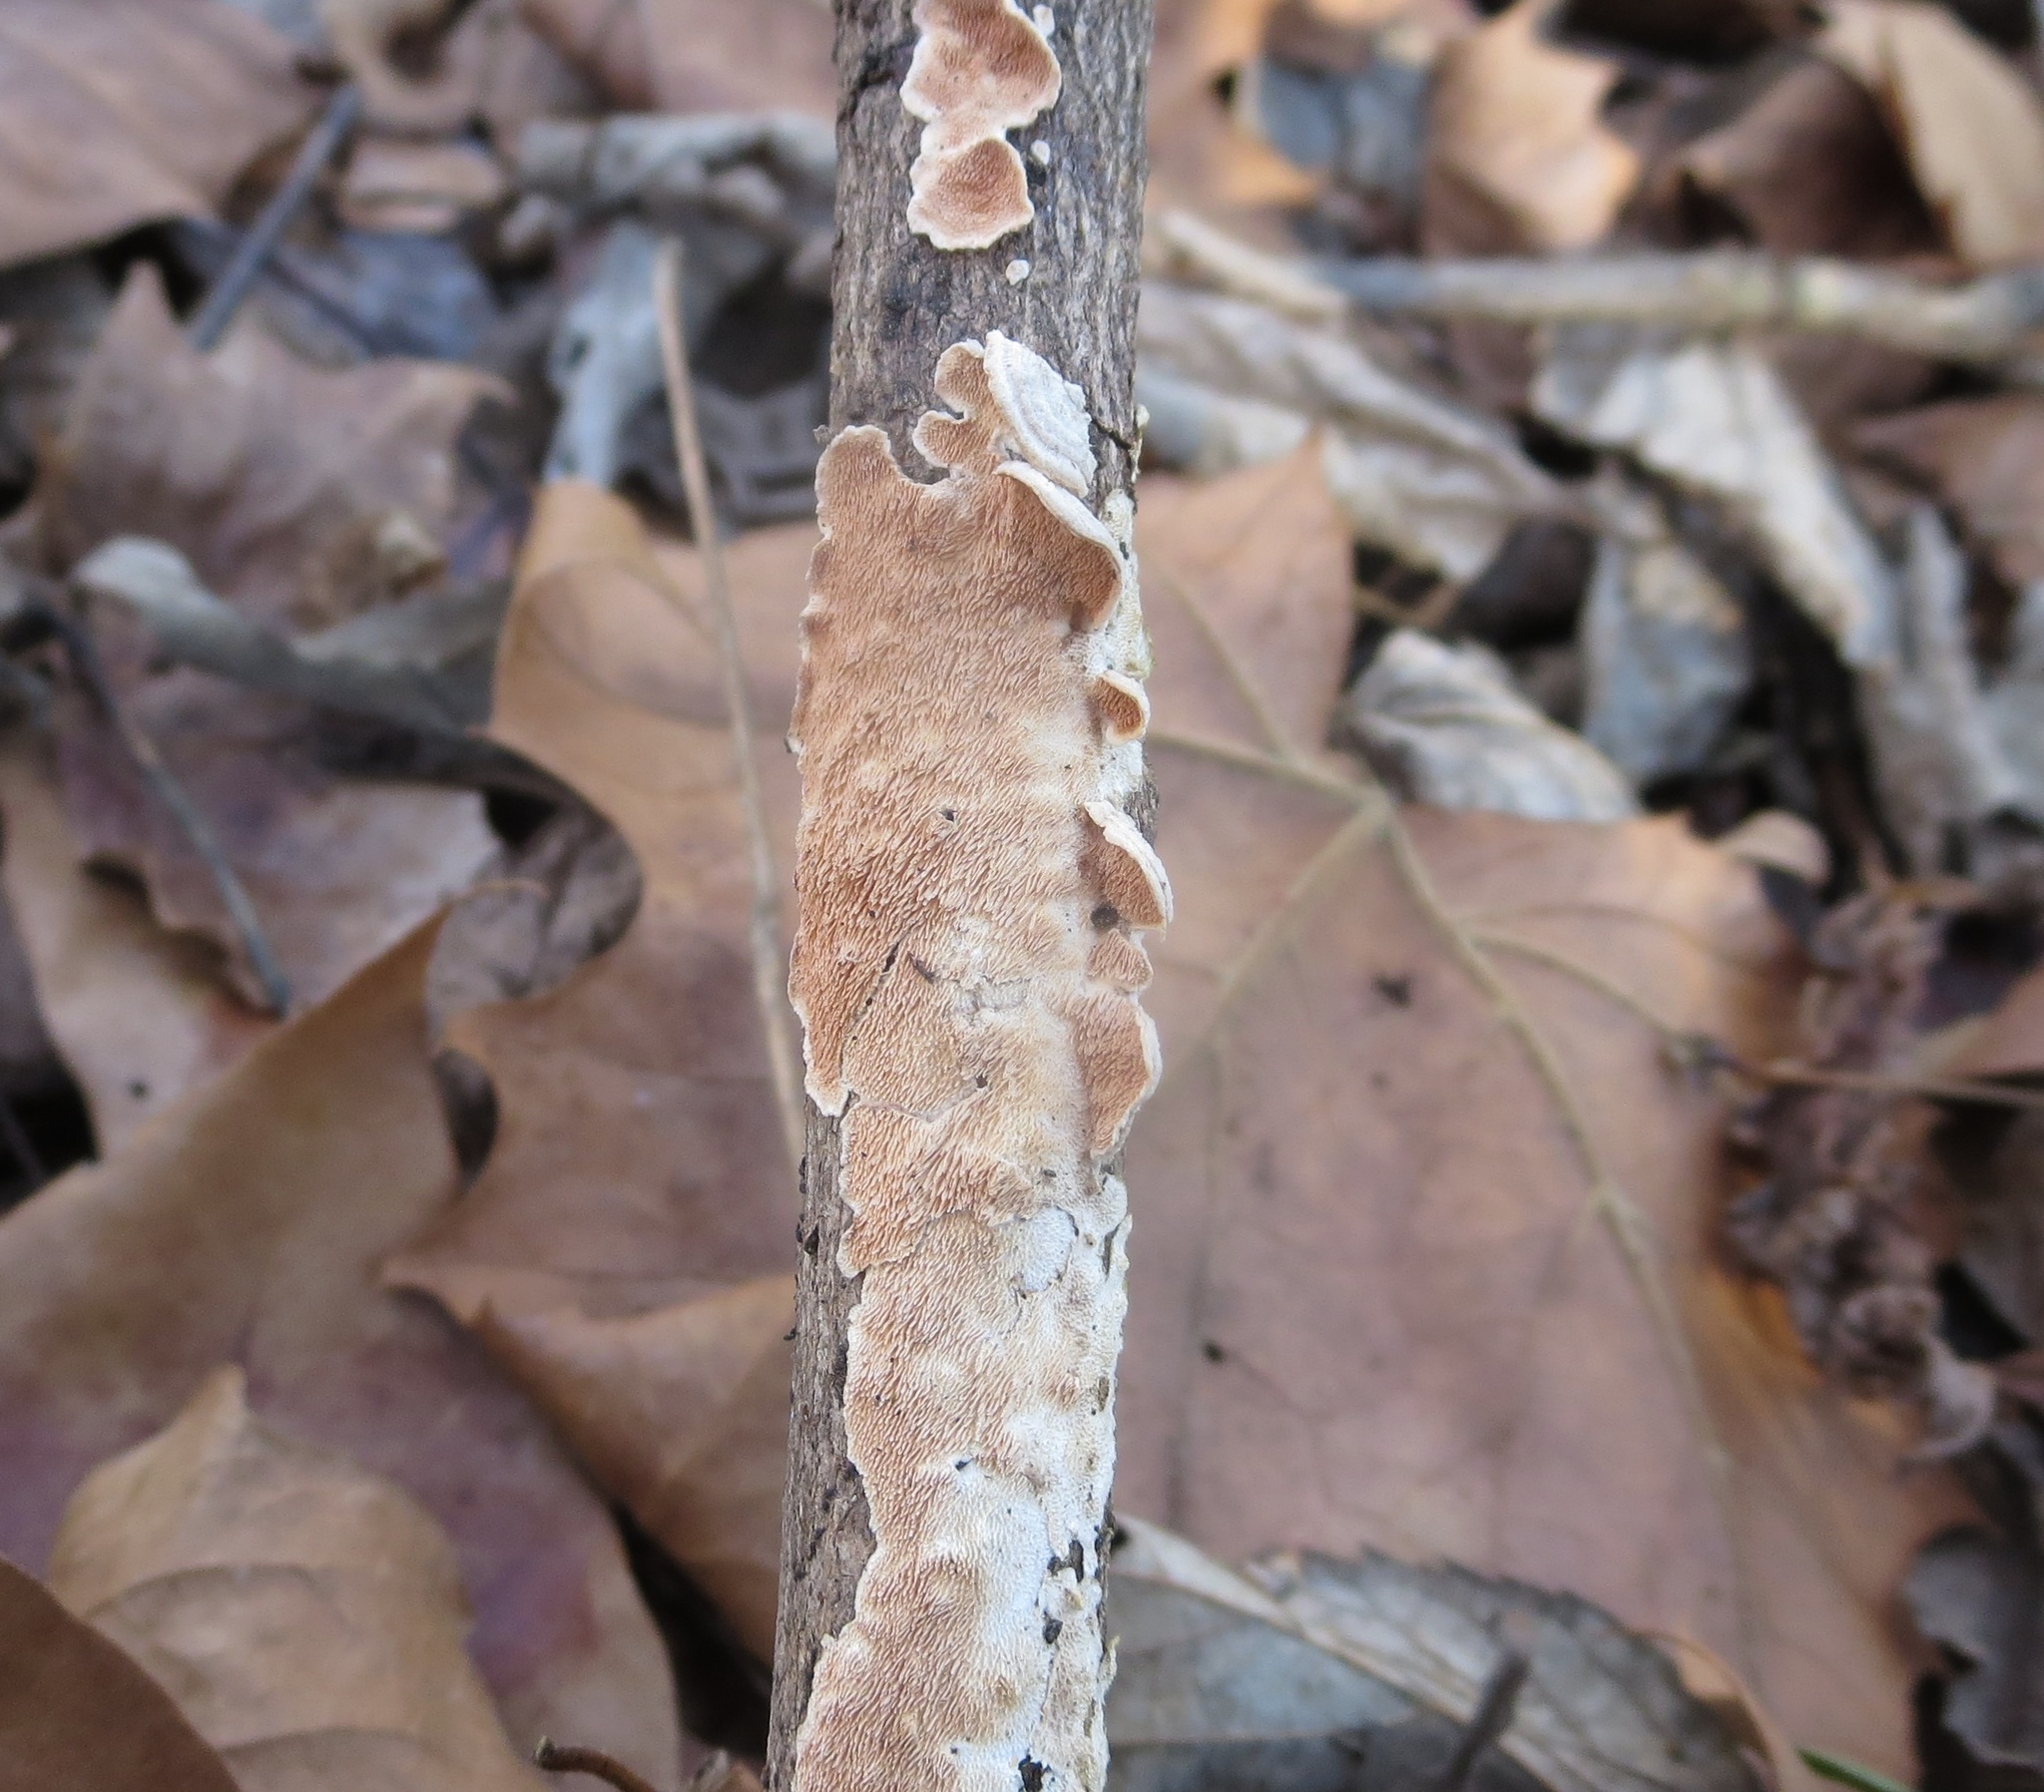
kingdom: Fungi
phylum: Basidiomycota
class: Agaricomycetes
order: Polyporales
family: Steccherinaceae
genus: Steccherinum
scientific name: Steccherinum ochraceum
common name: Ochre spreading tooth
